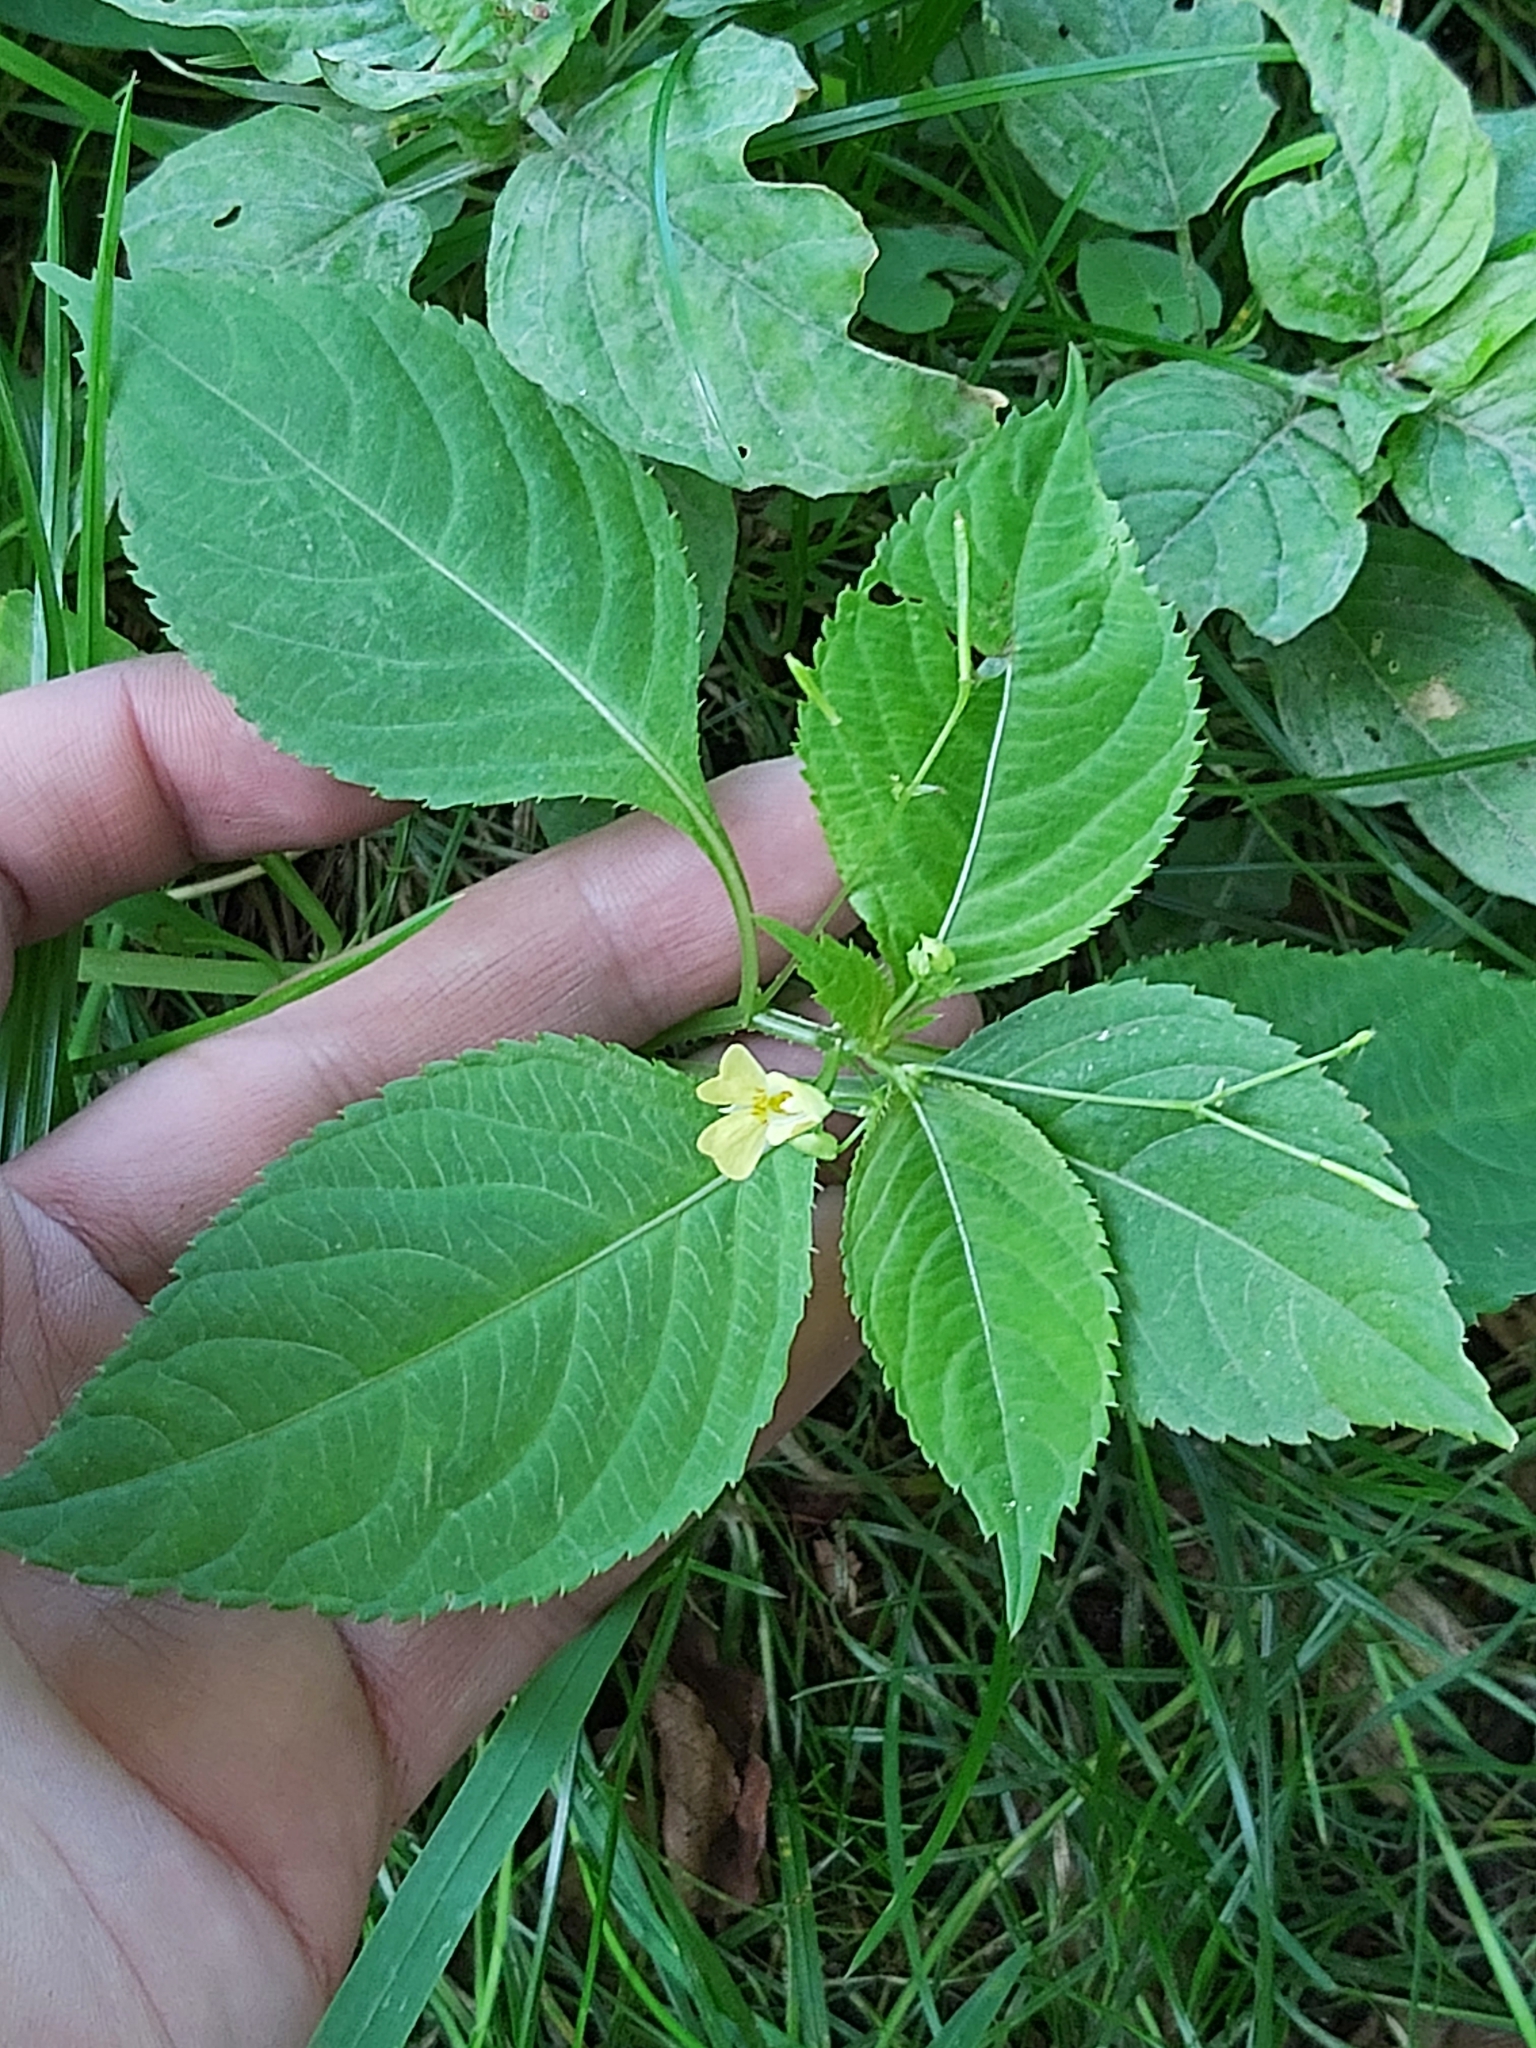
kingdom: Plantae
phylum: Tracheophyta
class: Magnoliopsida
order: Ericales
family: Balsaminaceae
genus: Impatiens
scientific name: Impatiens parviflora
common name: Small balsam
